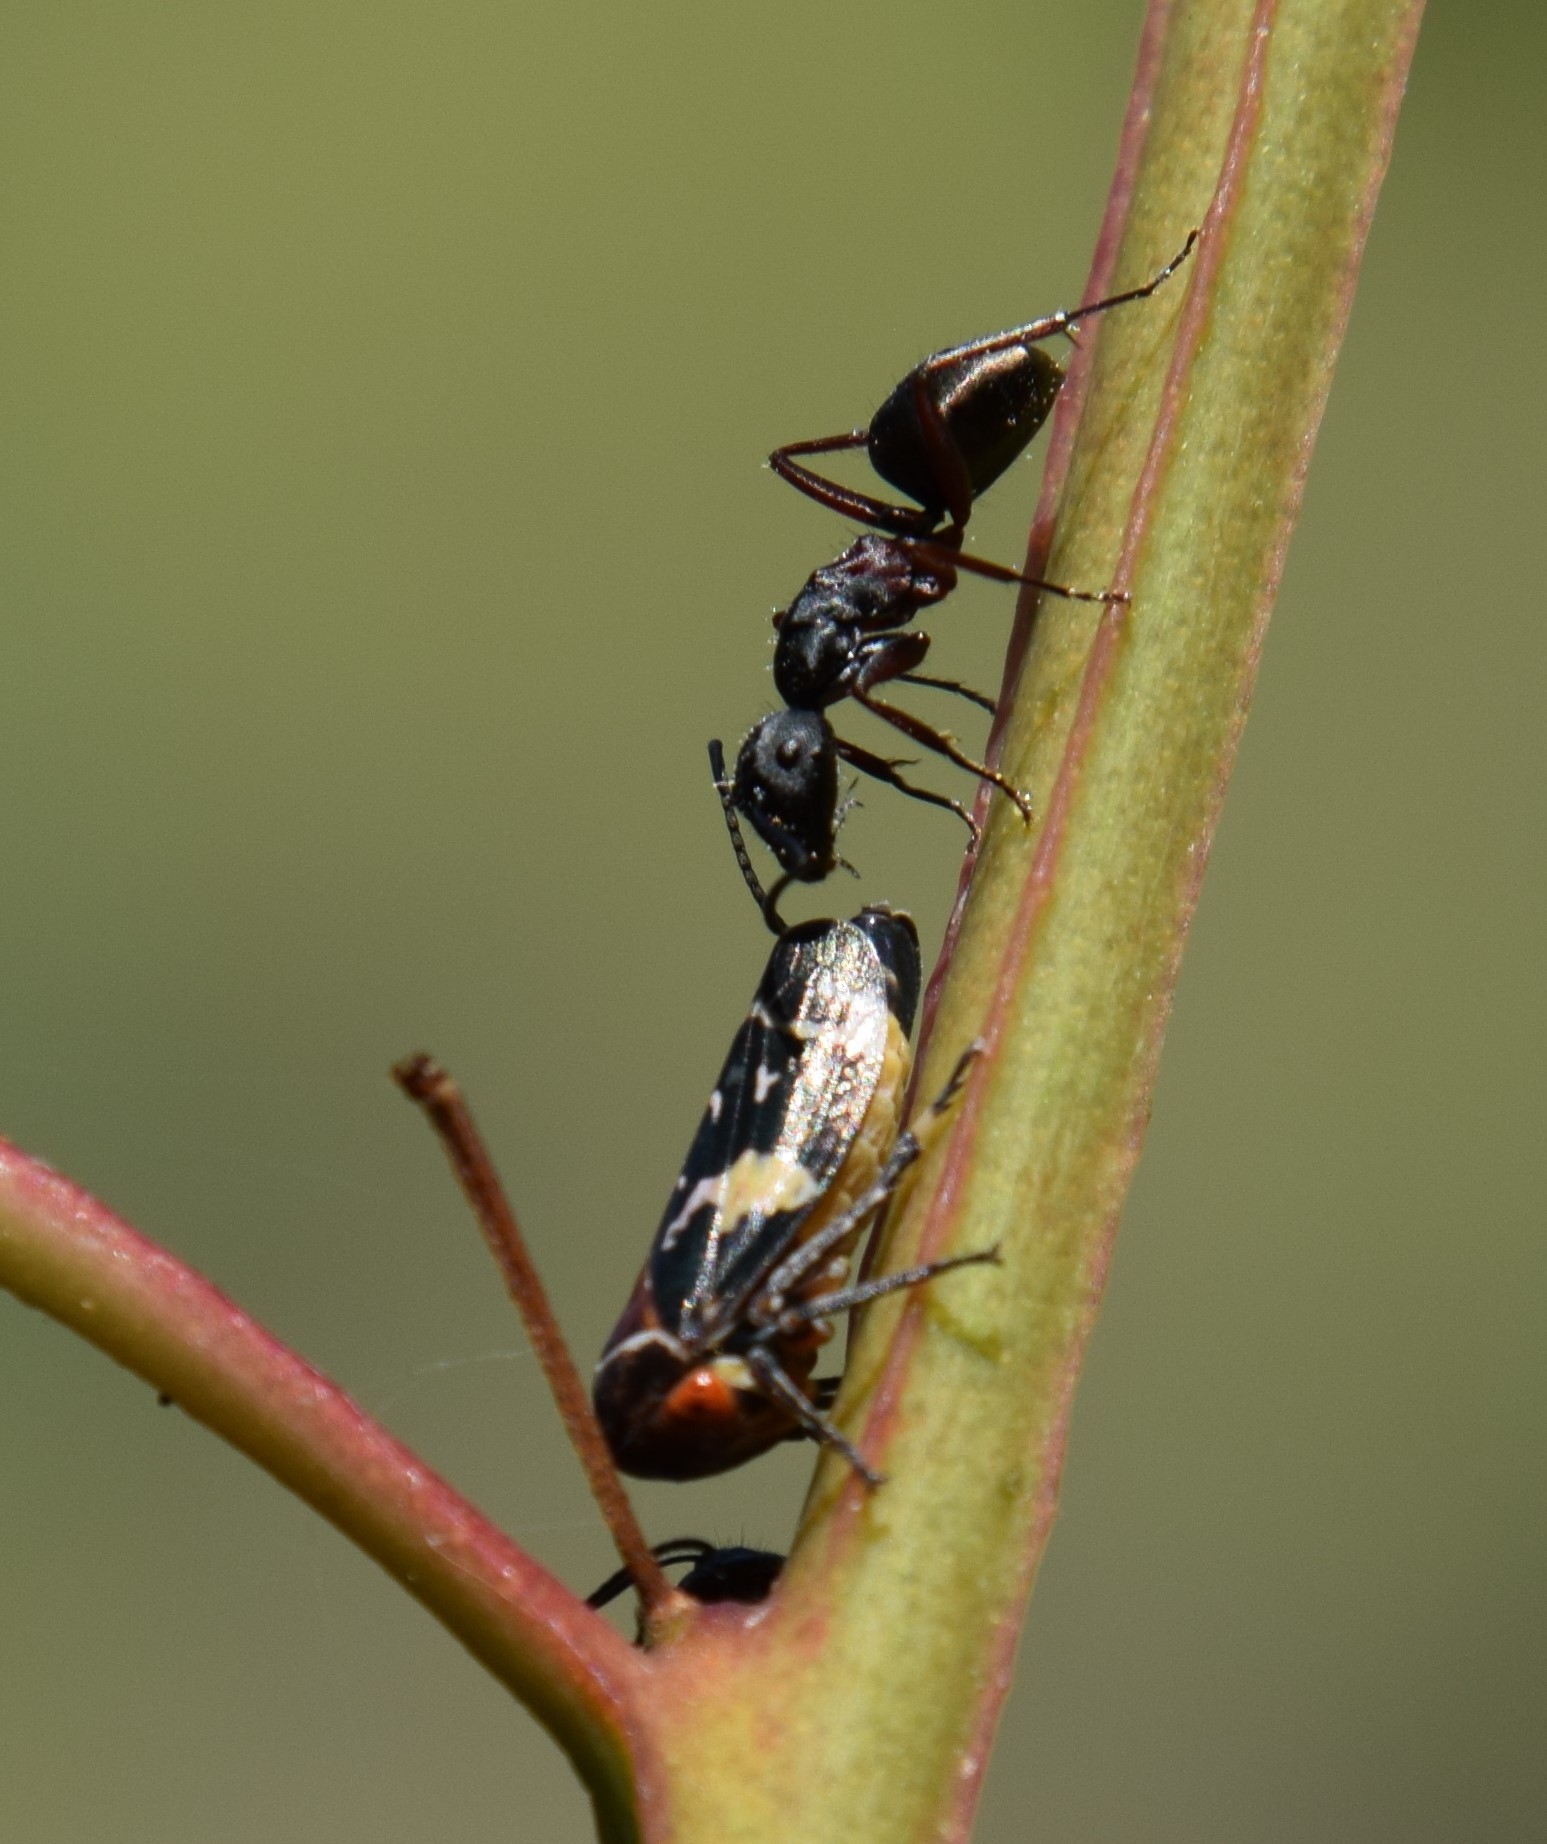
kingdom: Animalia
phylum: Arthropoda
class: Insecta
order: Hymenoptera
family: Formicidae
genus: Camponotus
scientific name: Camponotus chalceus
